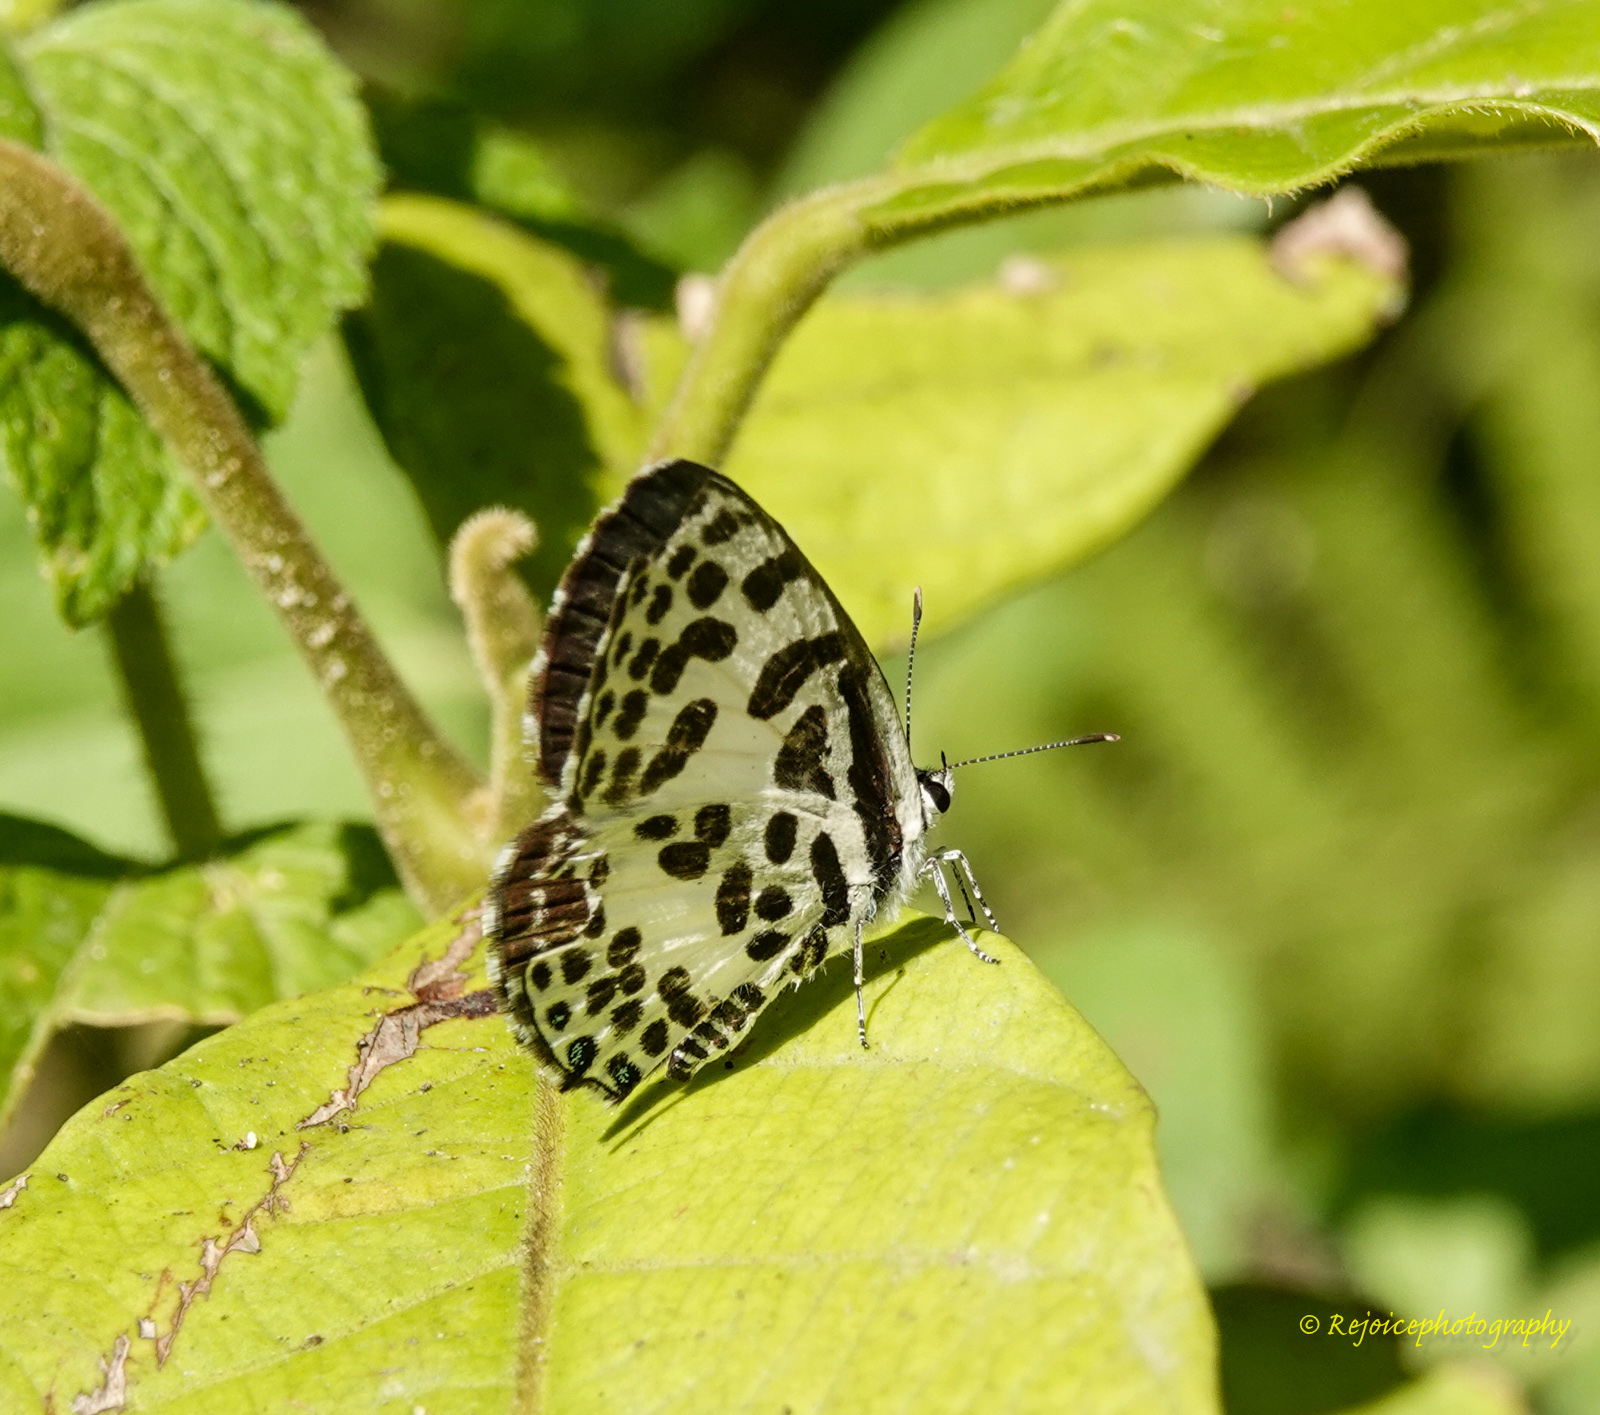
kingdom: Animalia
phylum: Arthropoda
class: Insecta
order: Lepidoptera
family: Lycaenidae
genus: Castalius
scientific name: Castalius rosimon
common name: Common pierrot
